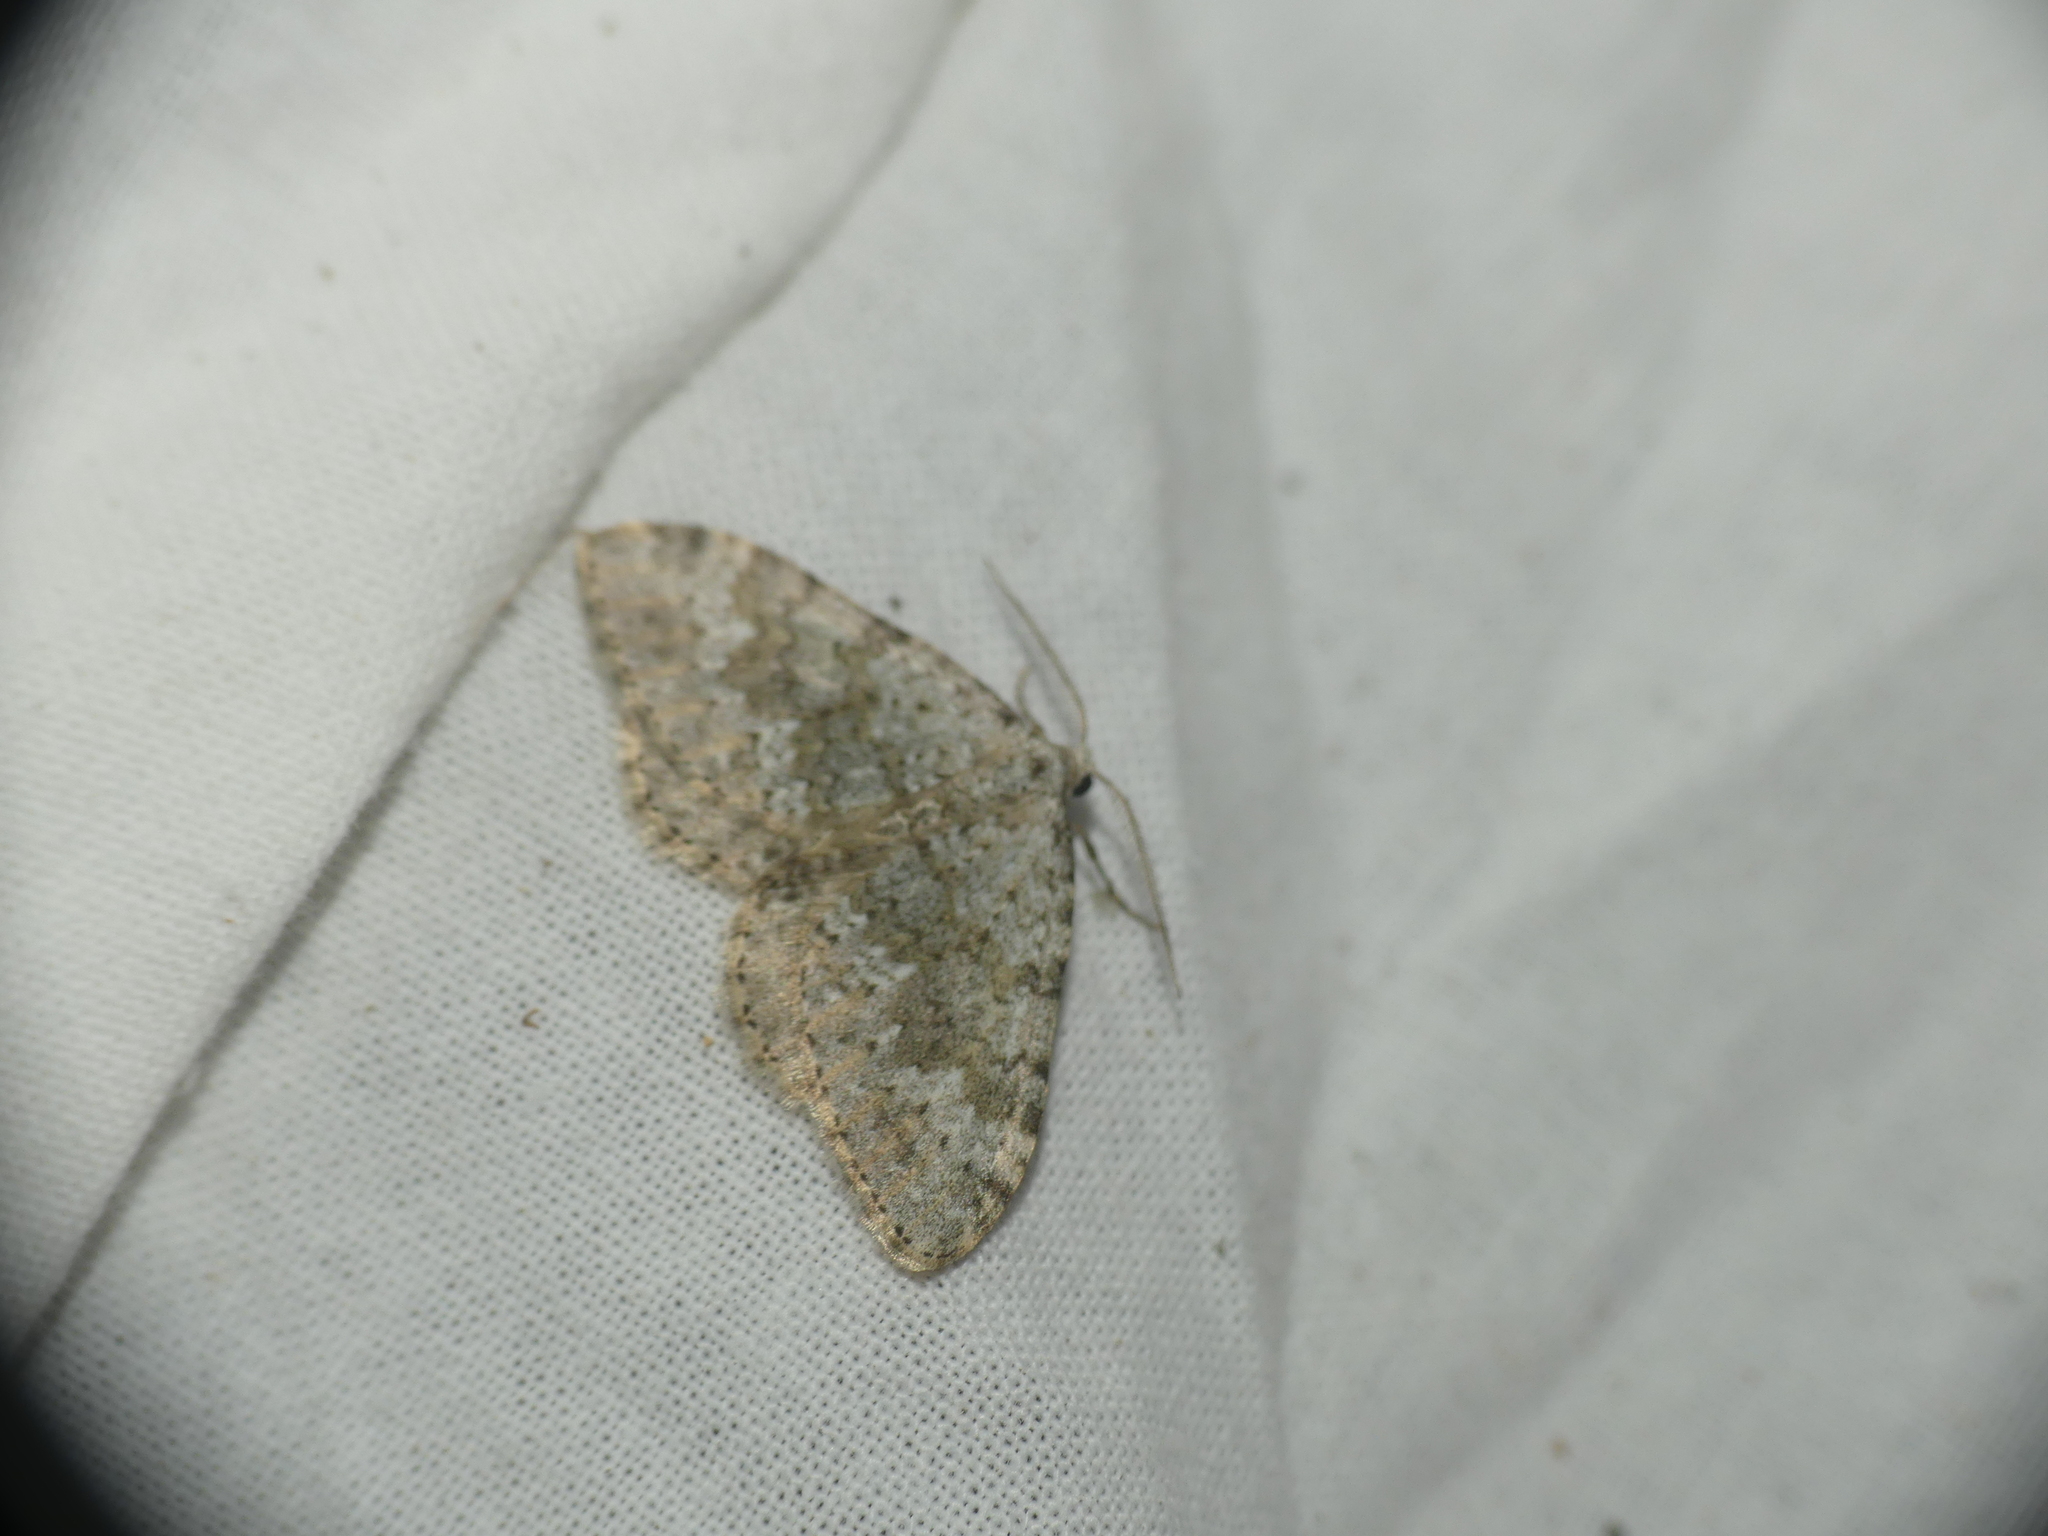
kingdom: Animalia
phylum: Arthropoda
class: Insecta
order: Lepidoptera
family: Geometridae
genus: Nebula
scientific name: Nebula salicata
